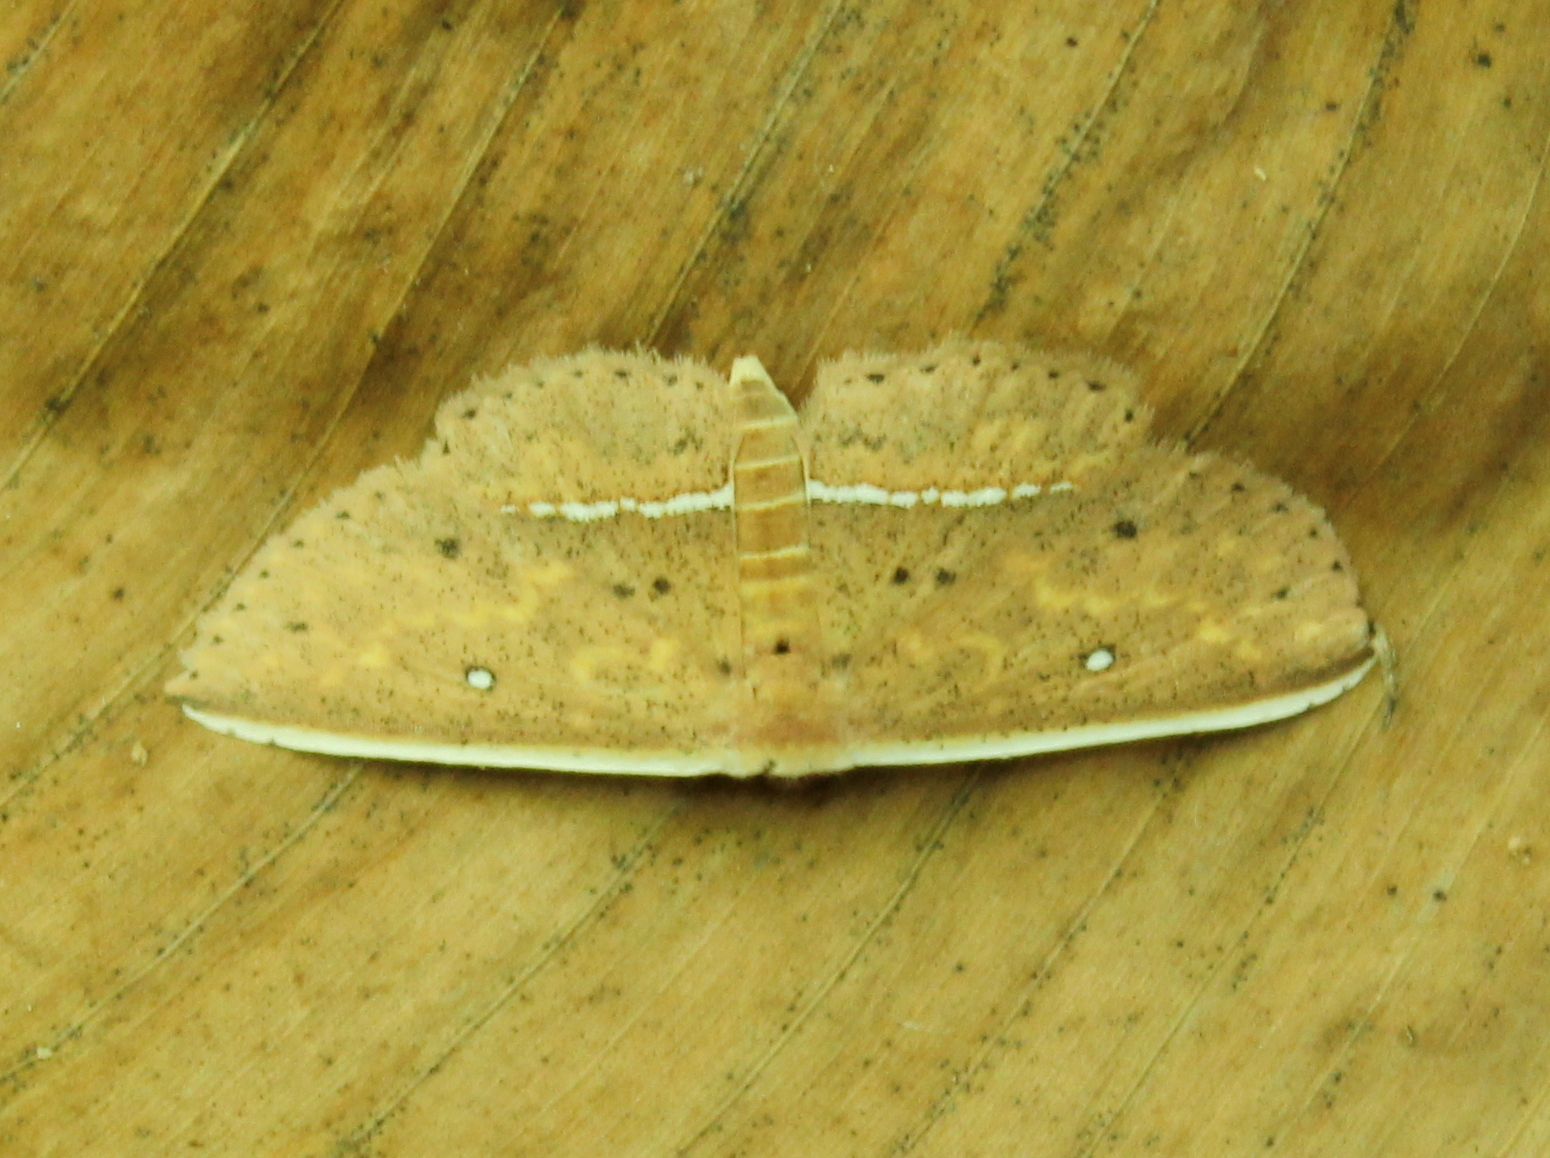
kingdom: Animalia
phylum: Arthropoda
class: Insecta
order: Lepidoptera
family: Noctuidae
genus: Arasada
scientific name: Arasada pyraliformis
